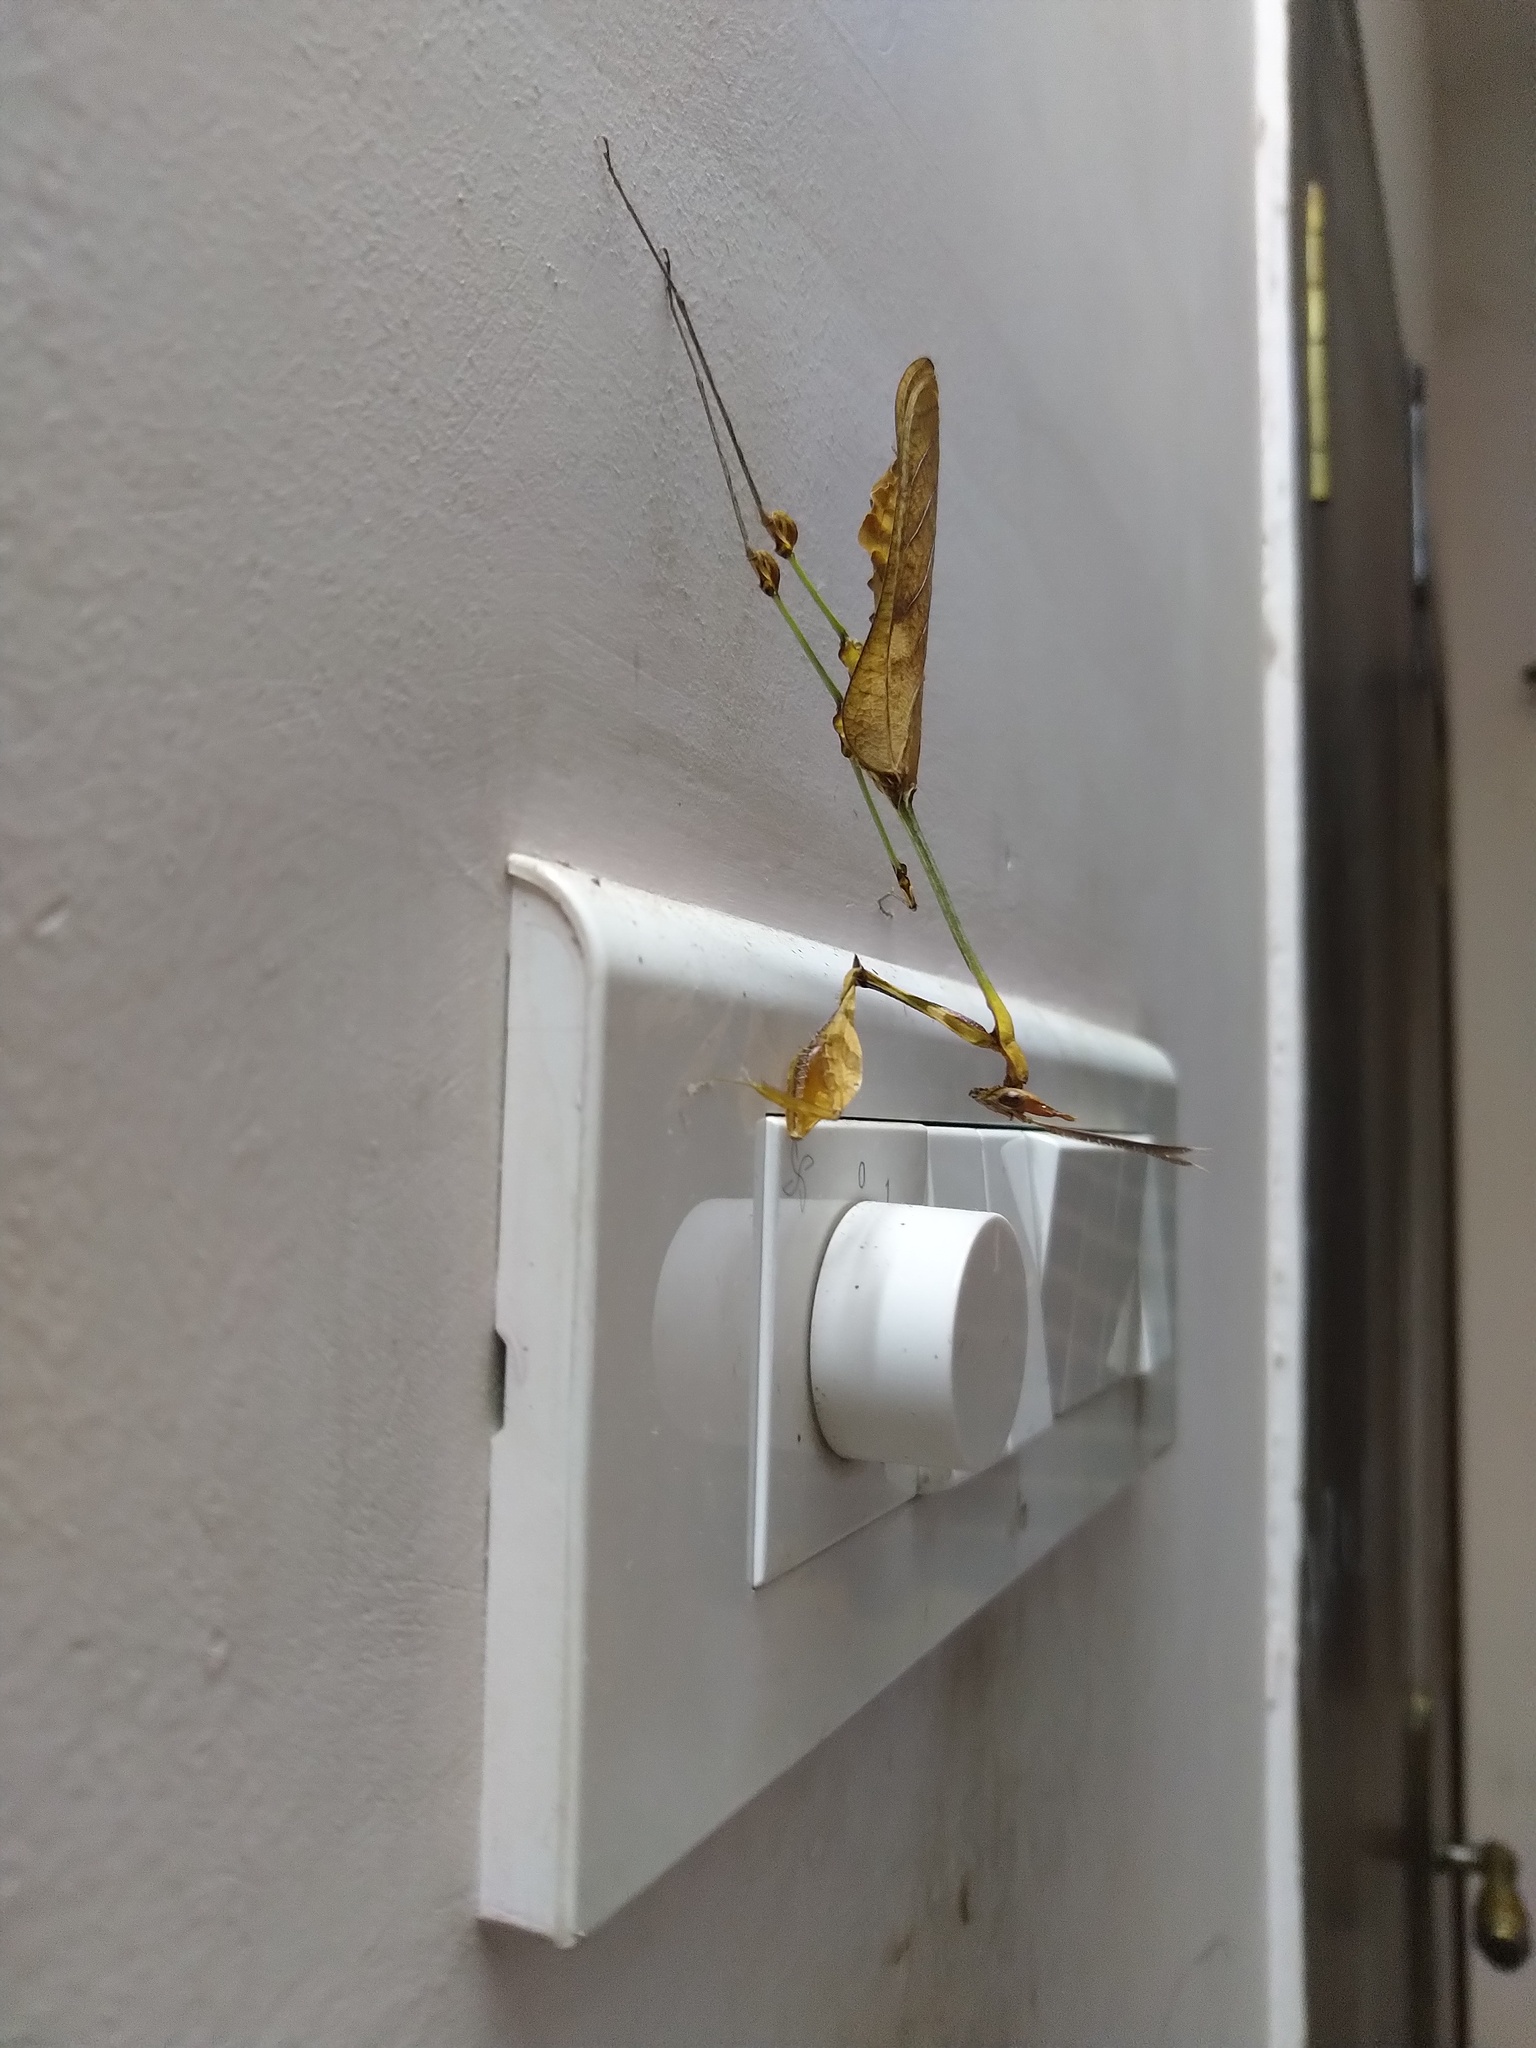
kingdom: Animalia
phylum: Arthropoda
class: Insecta
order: Mantodea
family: Empusidae
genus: Gongylus
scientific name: Gongylus gongylodes
